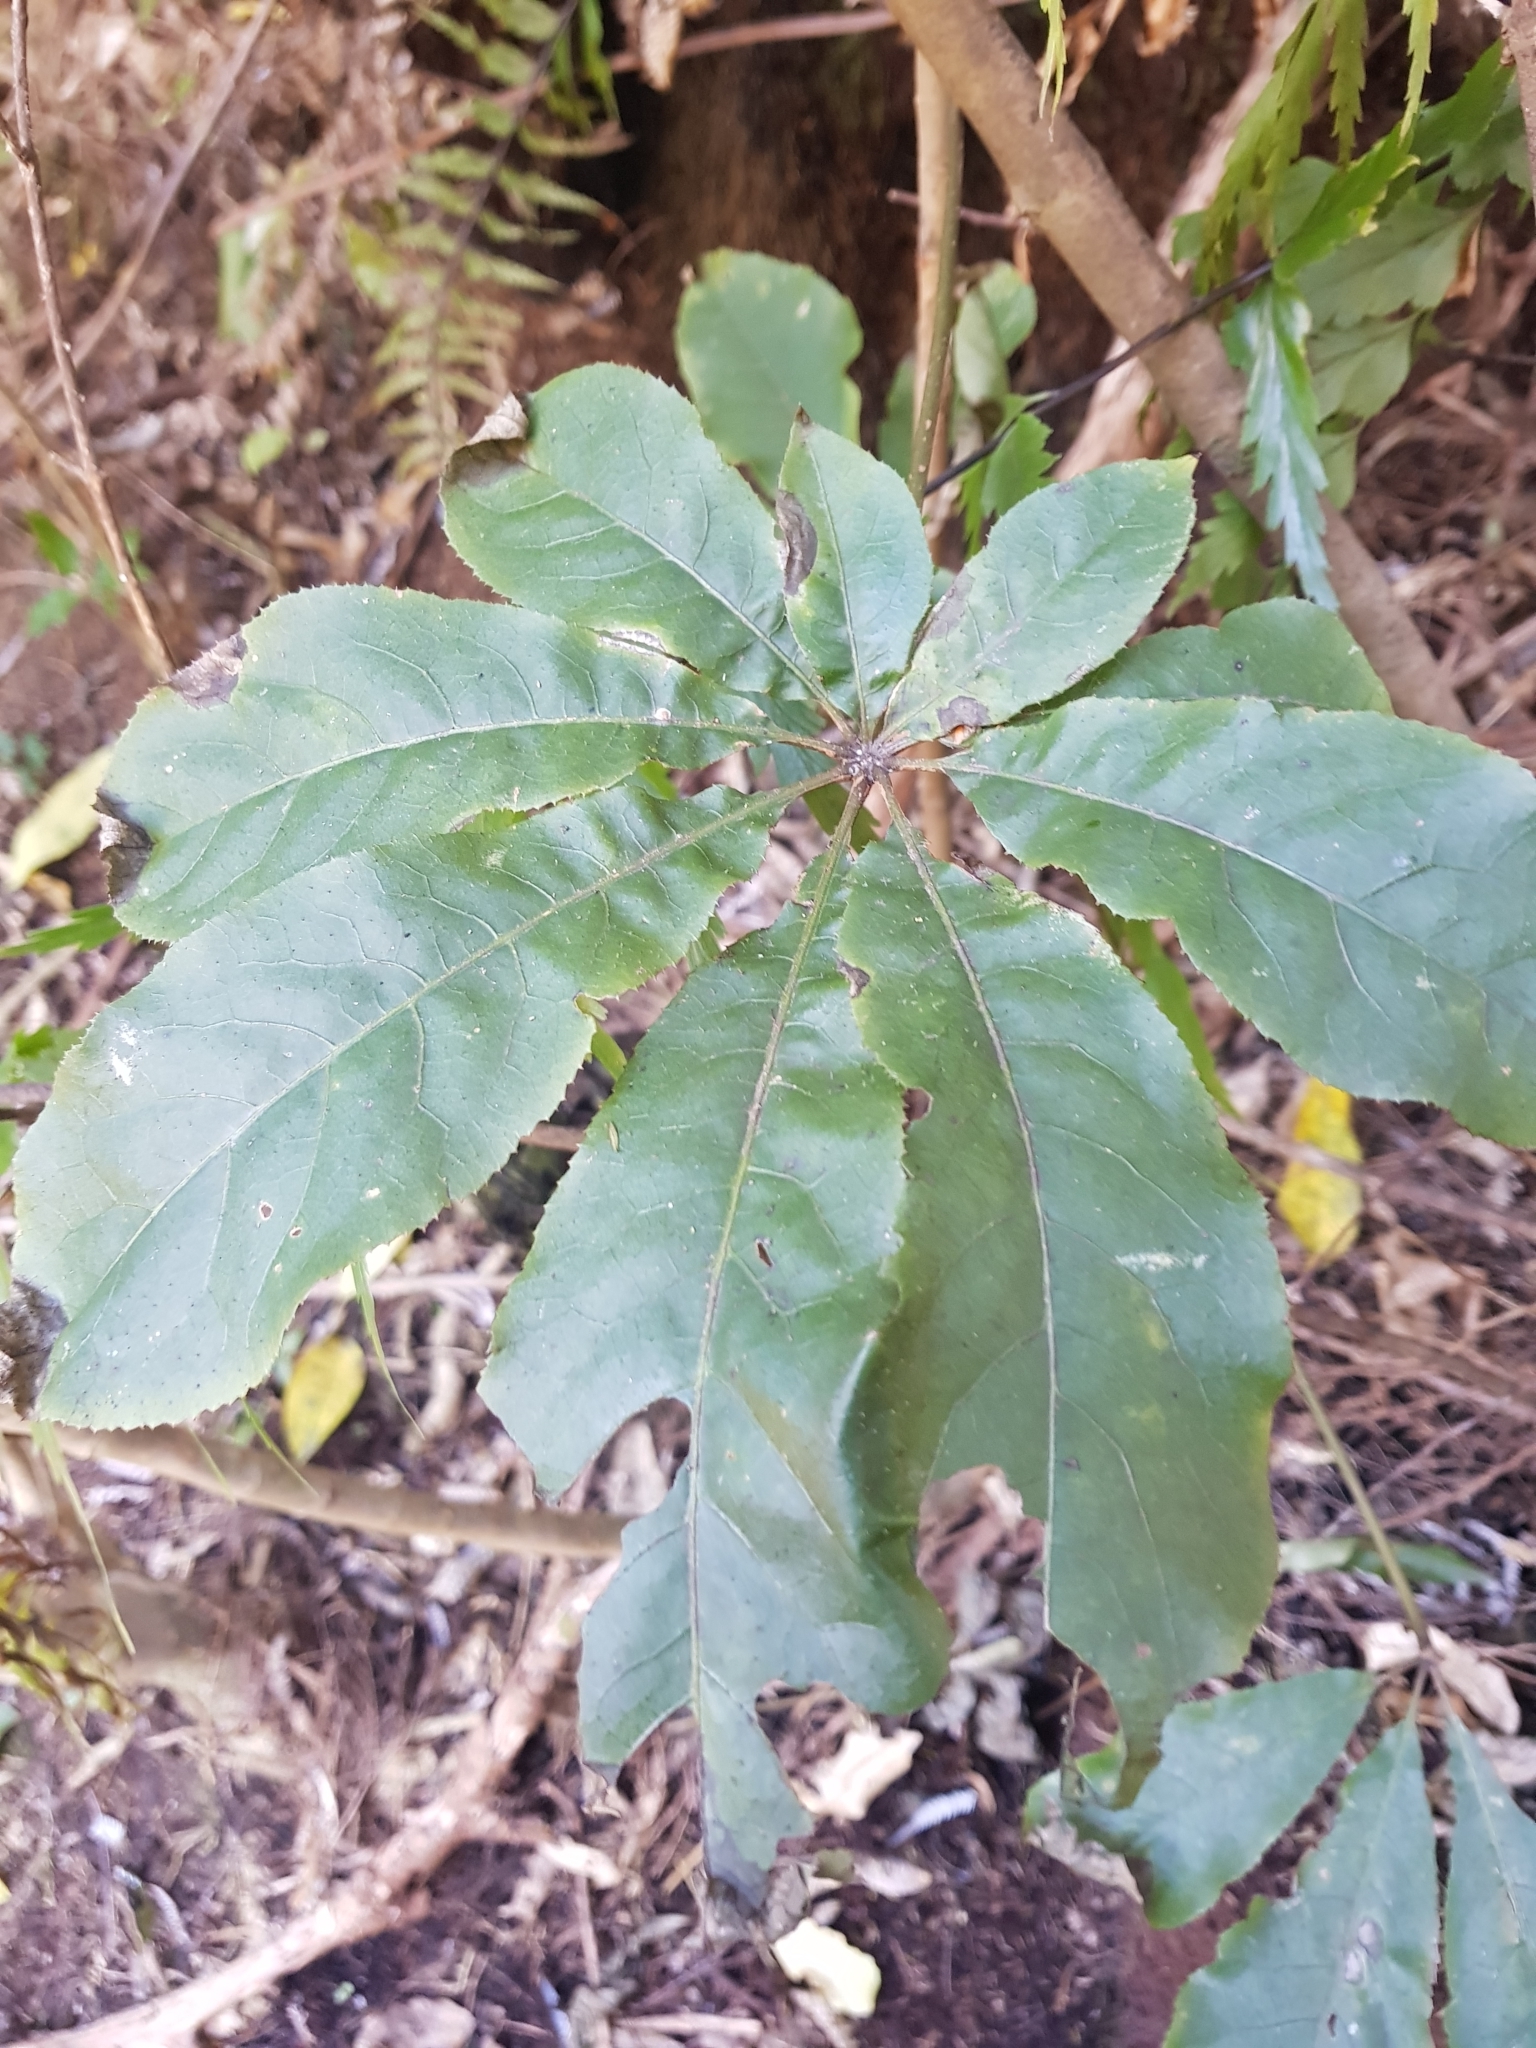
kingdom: Plantae
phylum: Tracheophyta
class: Magnoliopsida
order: Apiales
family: Araliaceae
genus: Schefflera
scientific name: Schefflera digitata
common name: Pate
